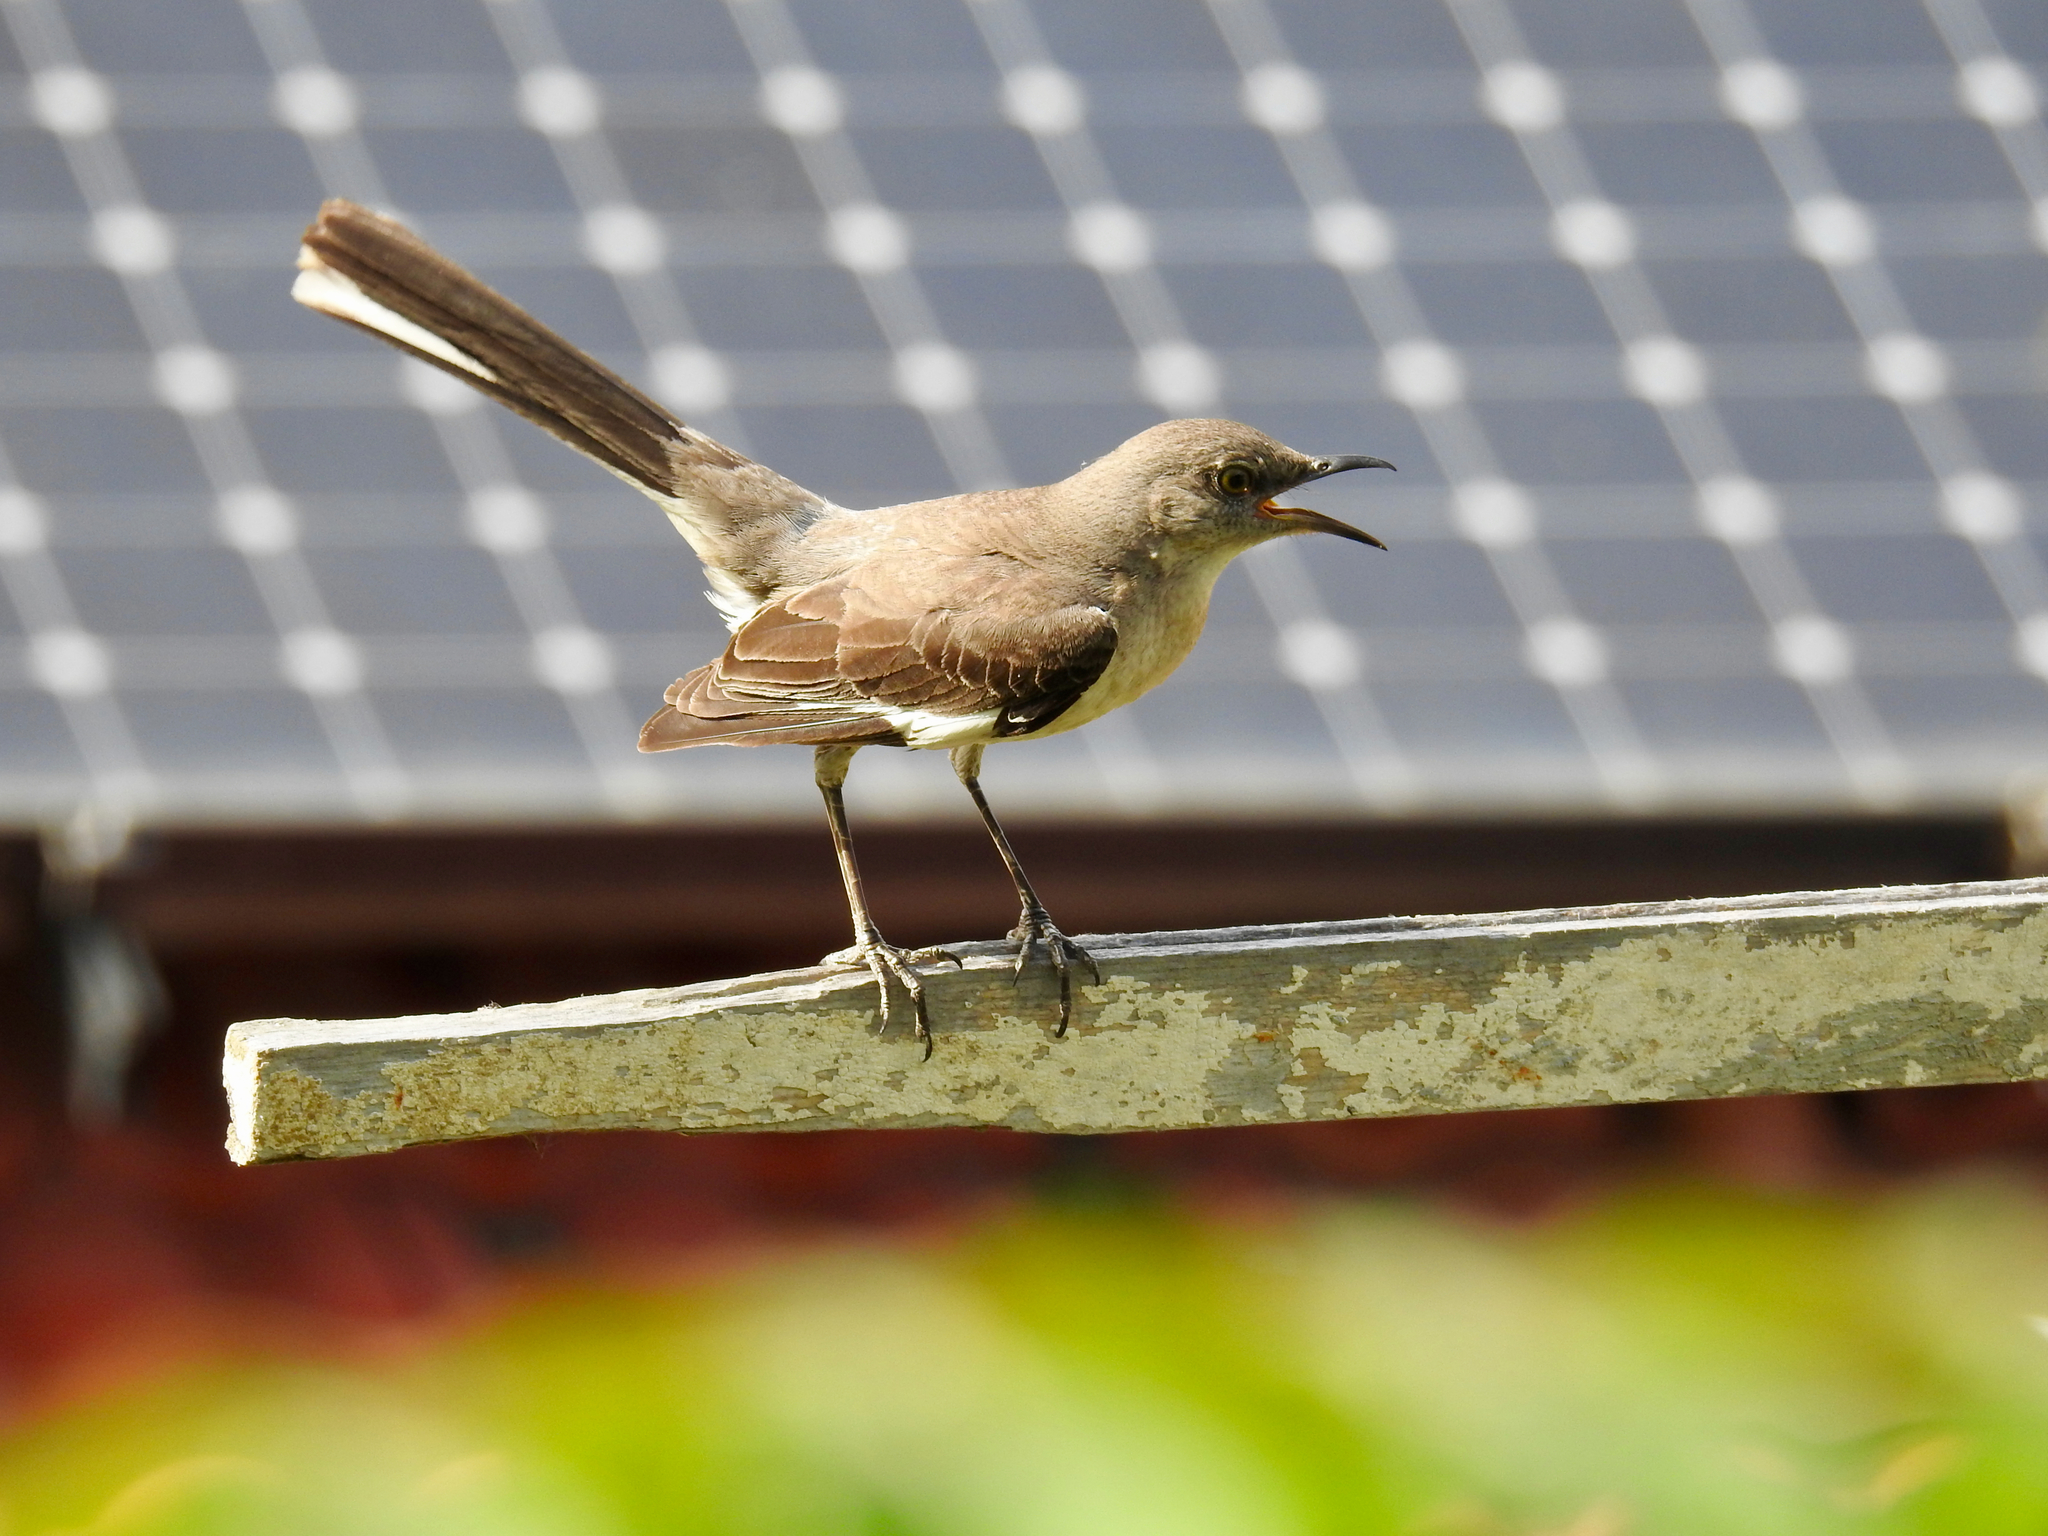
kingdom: Animalia
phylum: Chordata
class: Aves
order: Passeriformes
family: Mimidae
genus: Mimus
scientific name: Mimus polyglottos
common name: Northern mockingbird
